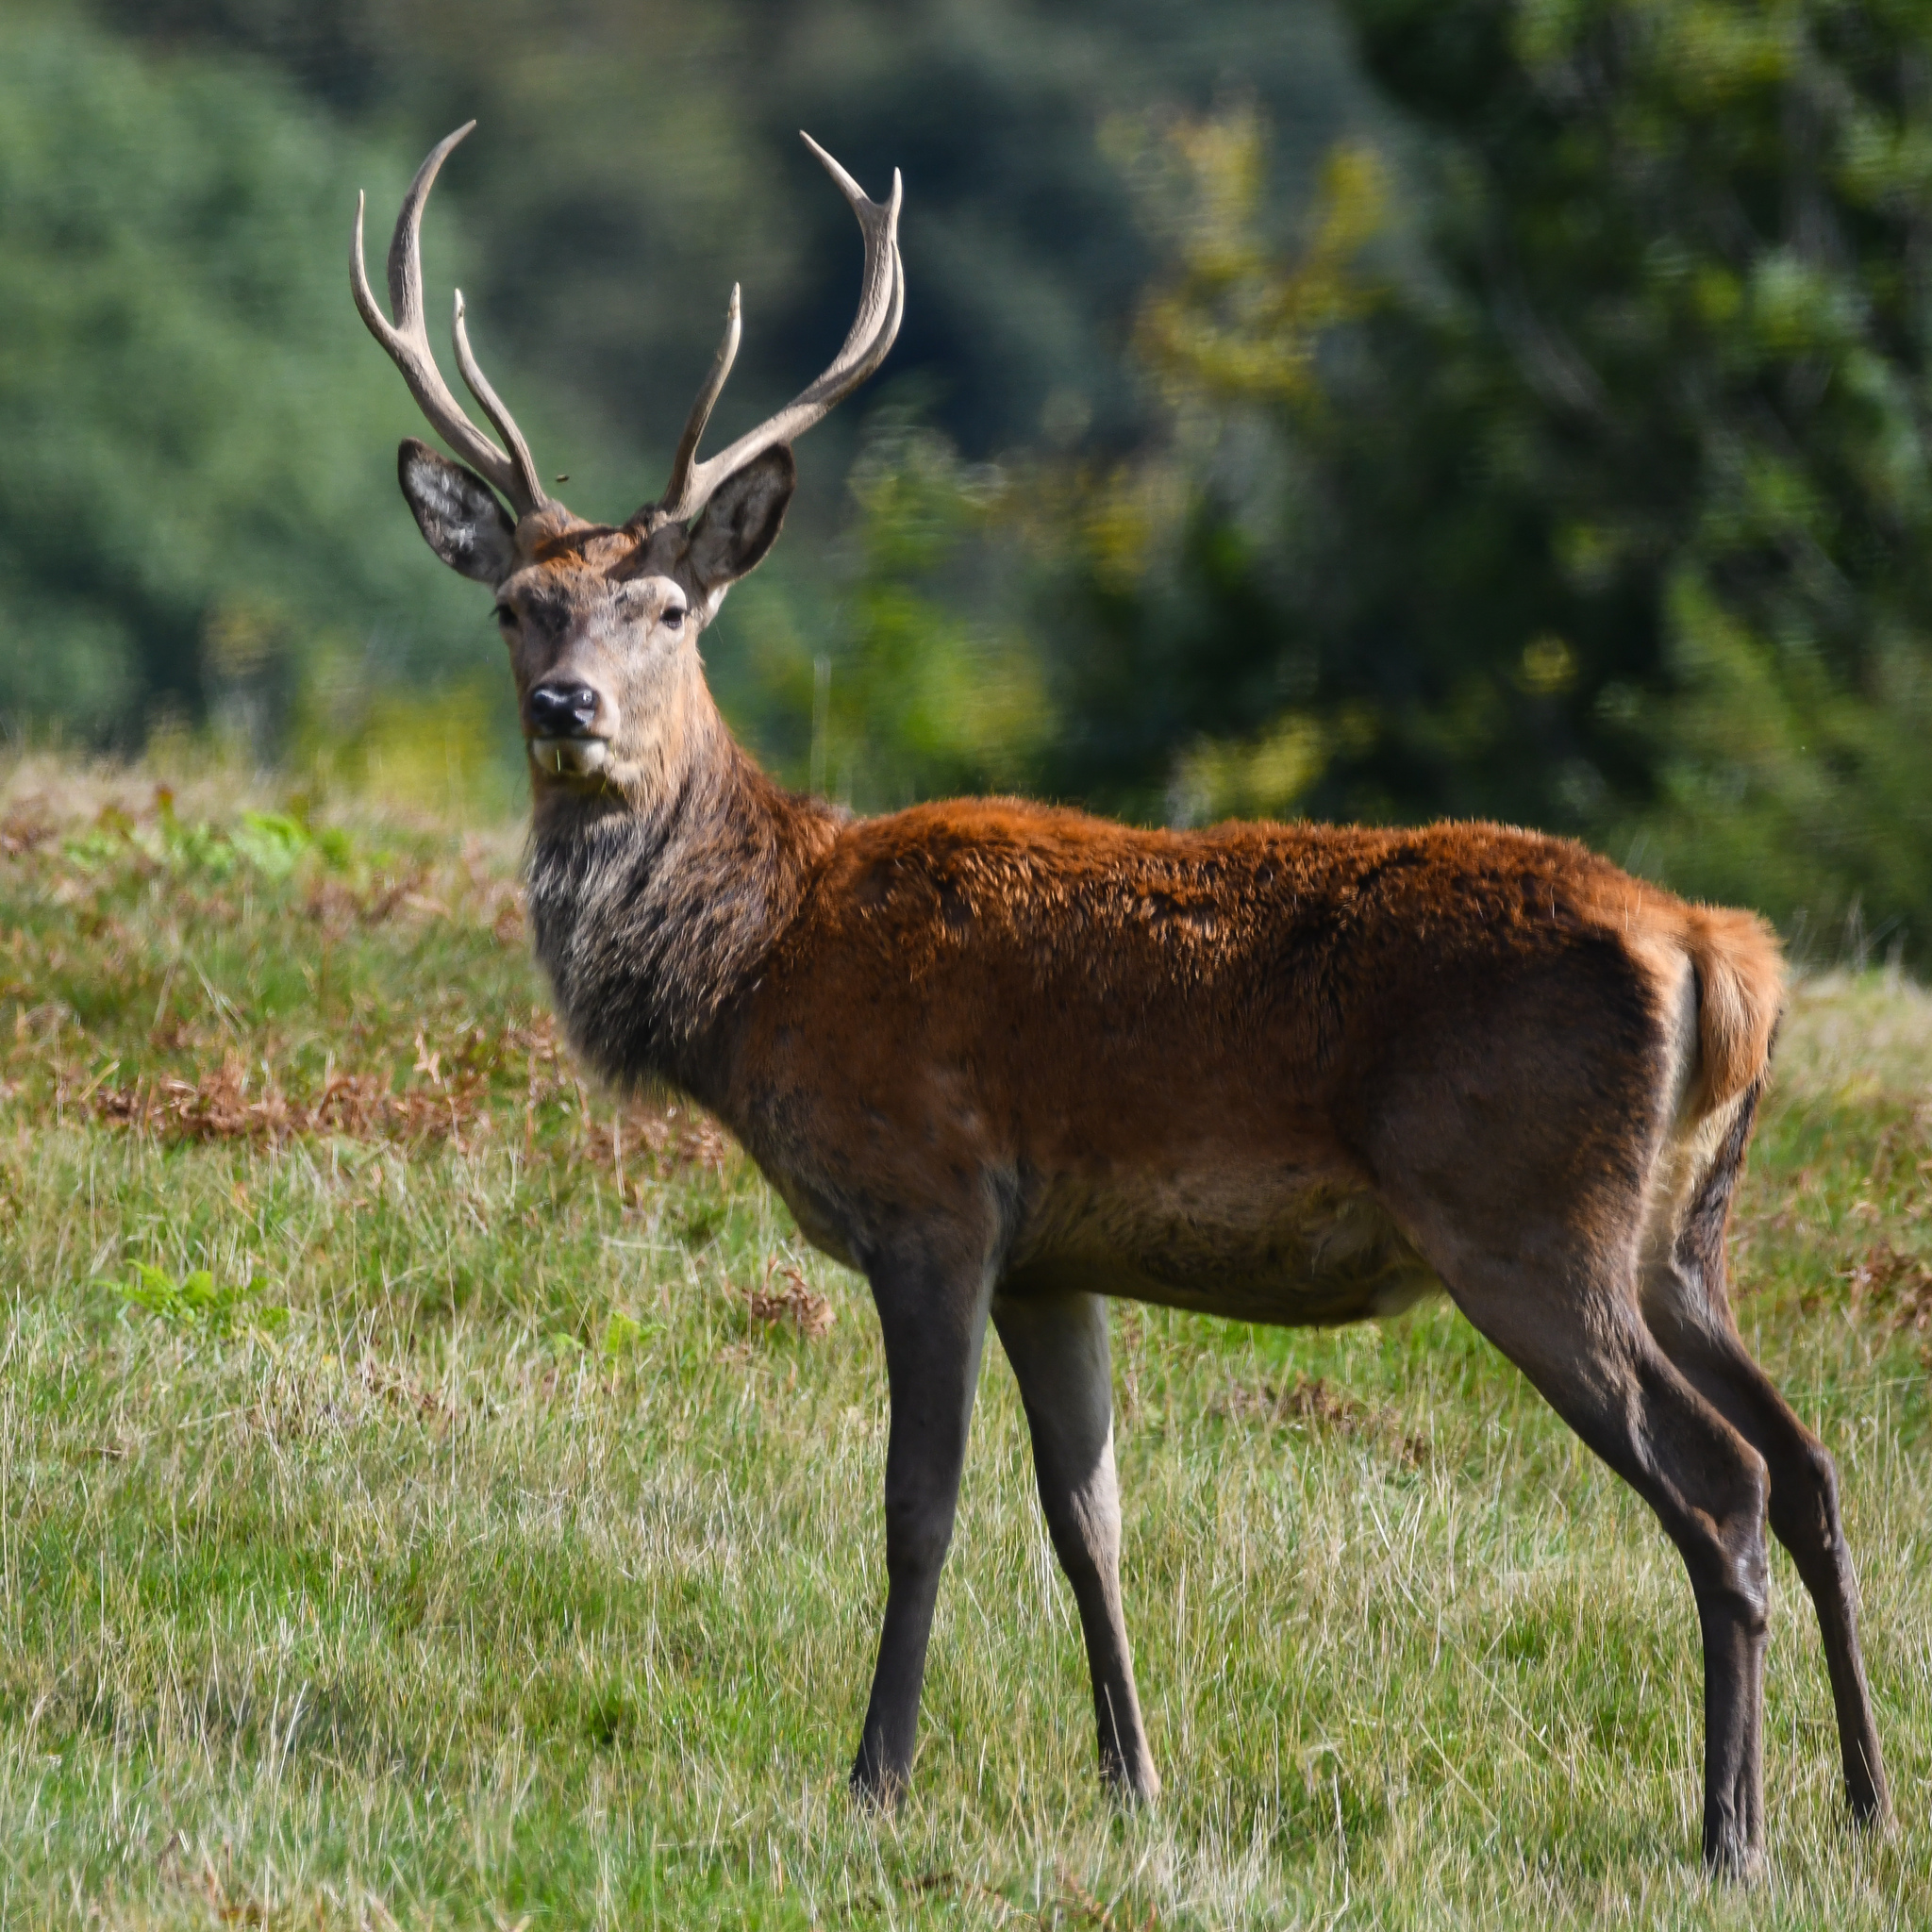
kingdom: Animalia
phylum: Chordata
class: Mammalia
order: Artiodactyla
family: Cervidae
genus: Cervus
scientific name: Cervus elaphus
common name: Red deer
